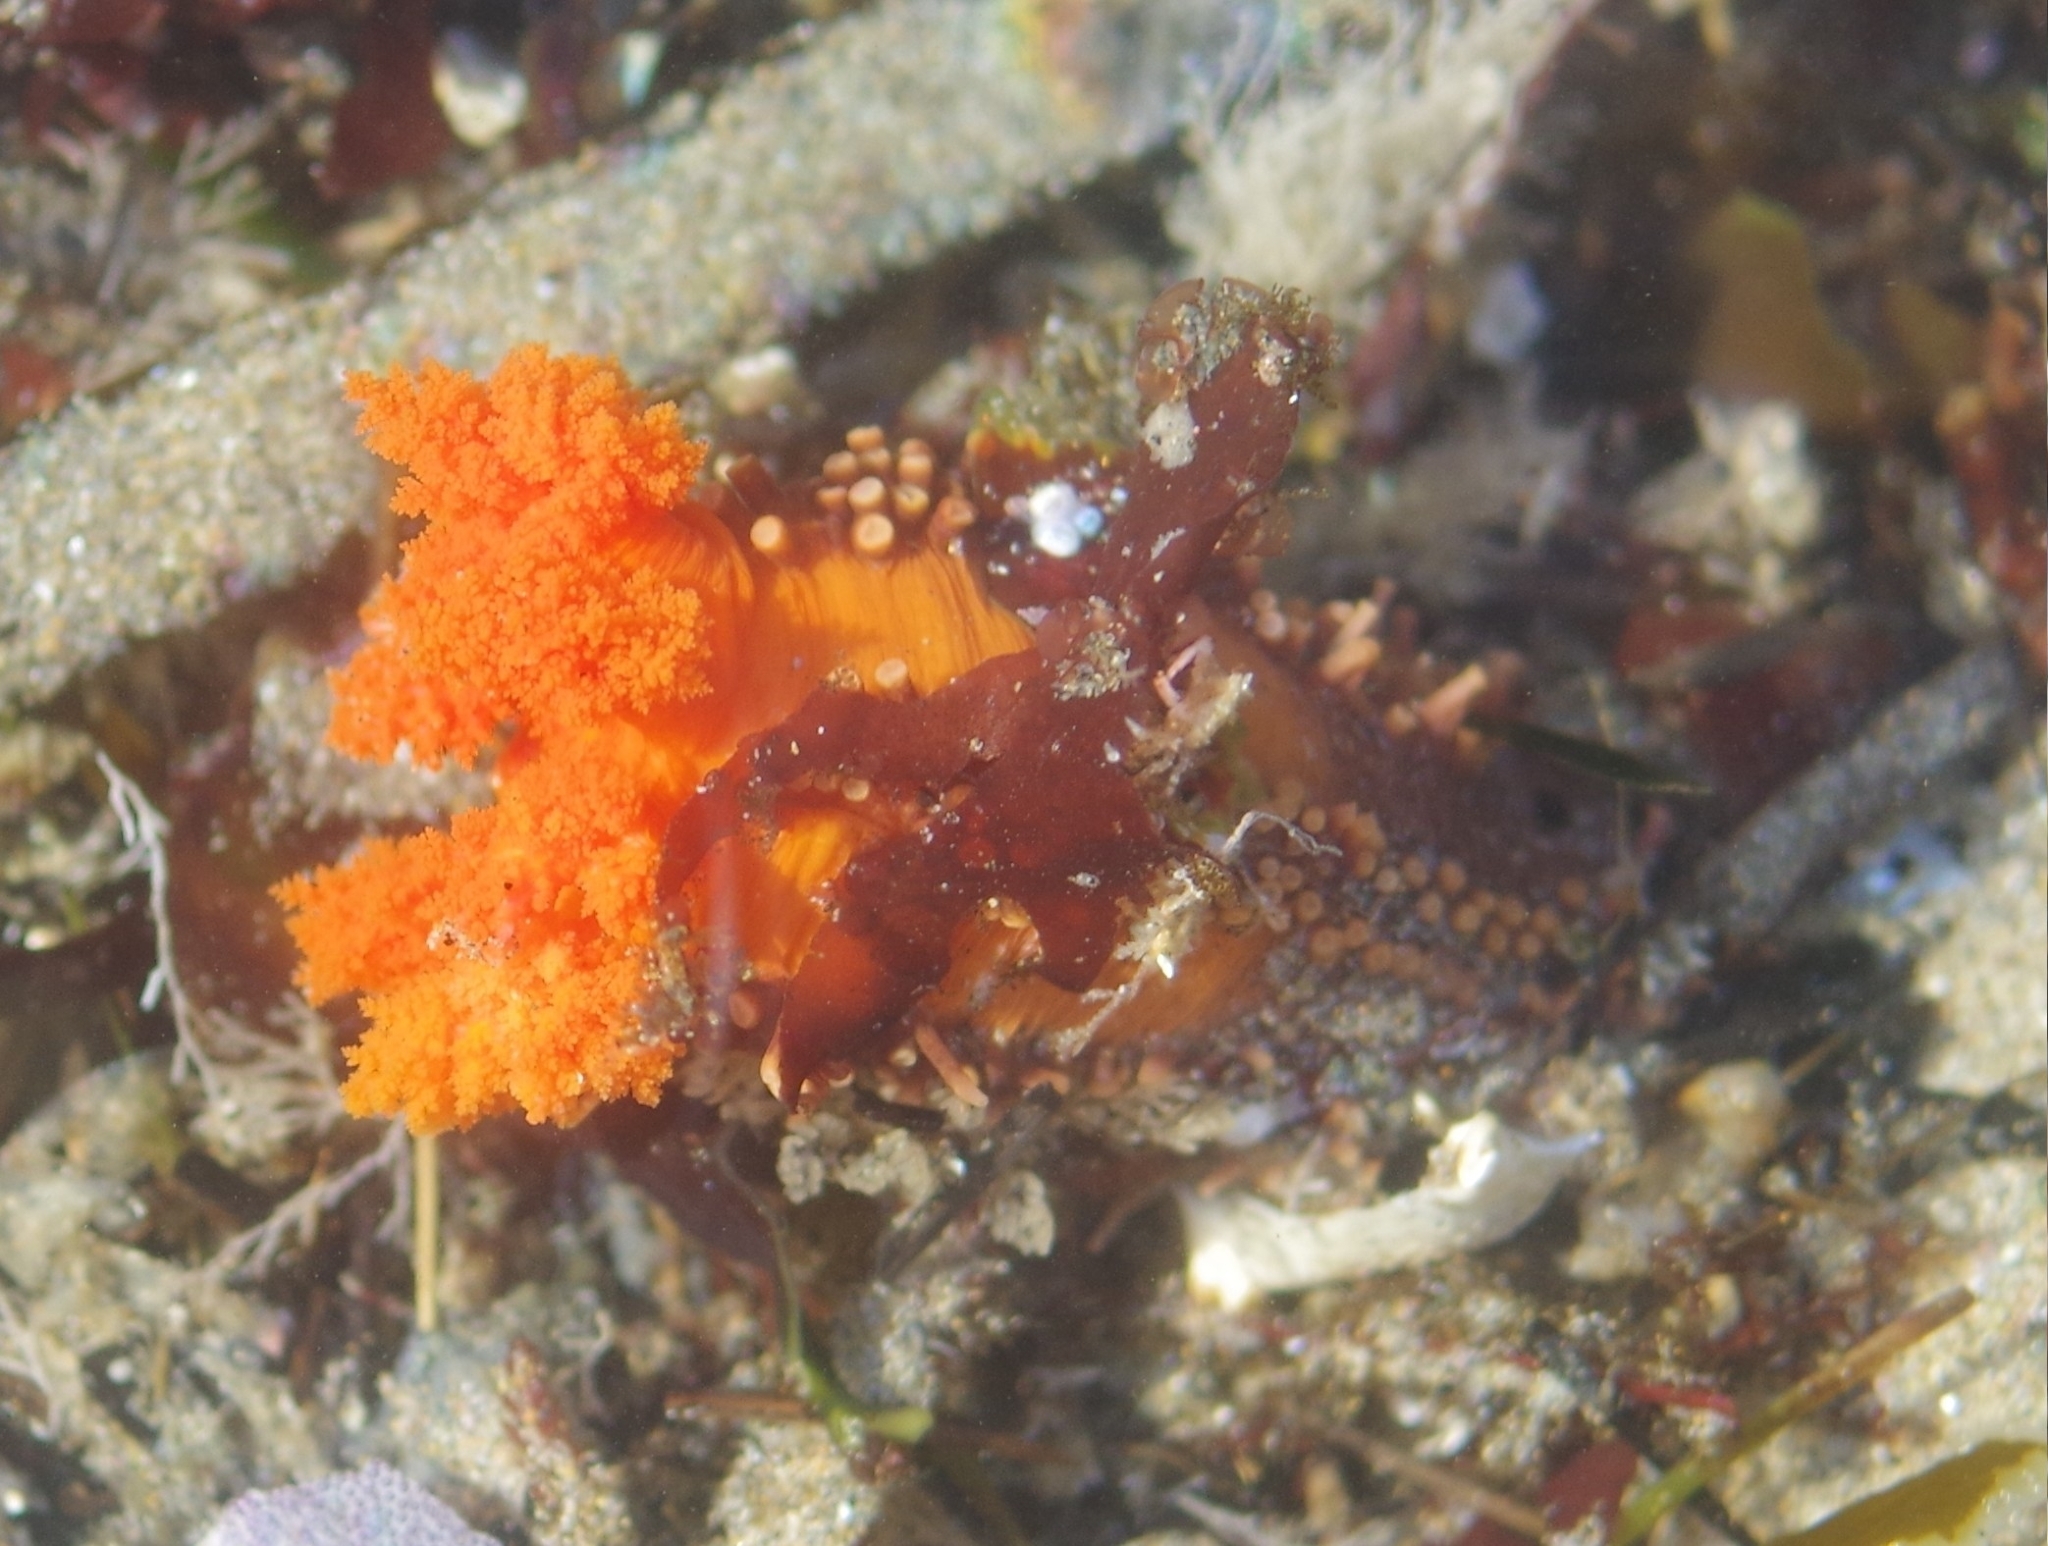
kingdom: Animalia
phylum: Echinodermata
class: Holothuroidea
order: Dendrochirotida
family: Cucumariidae
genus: Cucumaria
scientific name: Cucumaria miniata
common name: Orange sea cucumber
